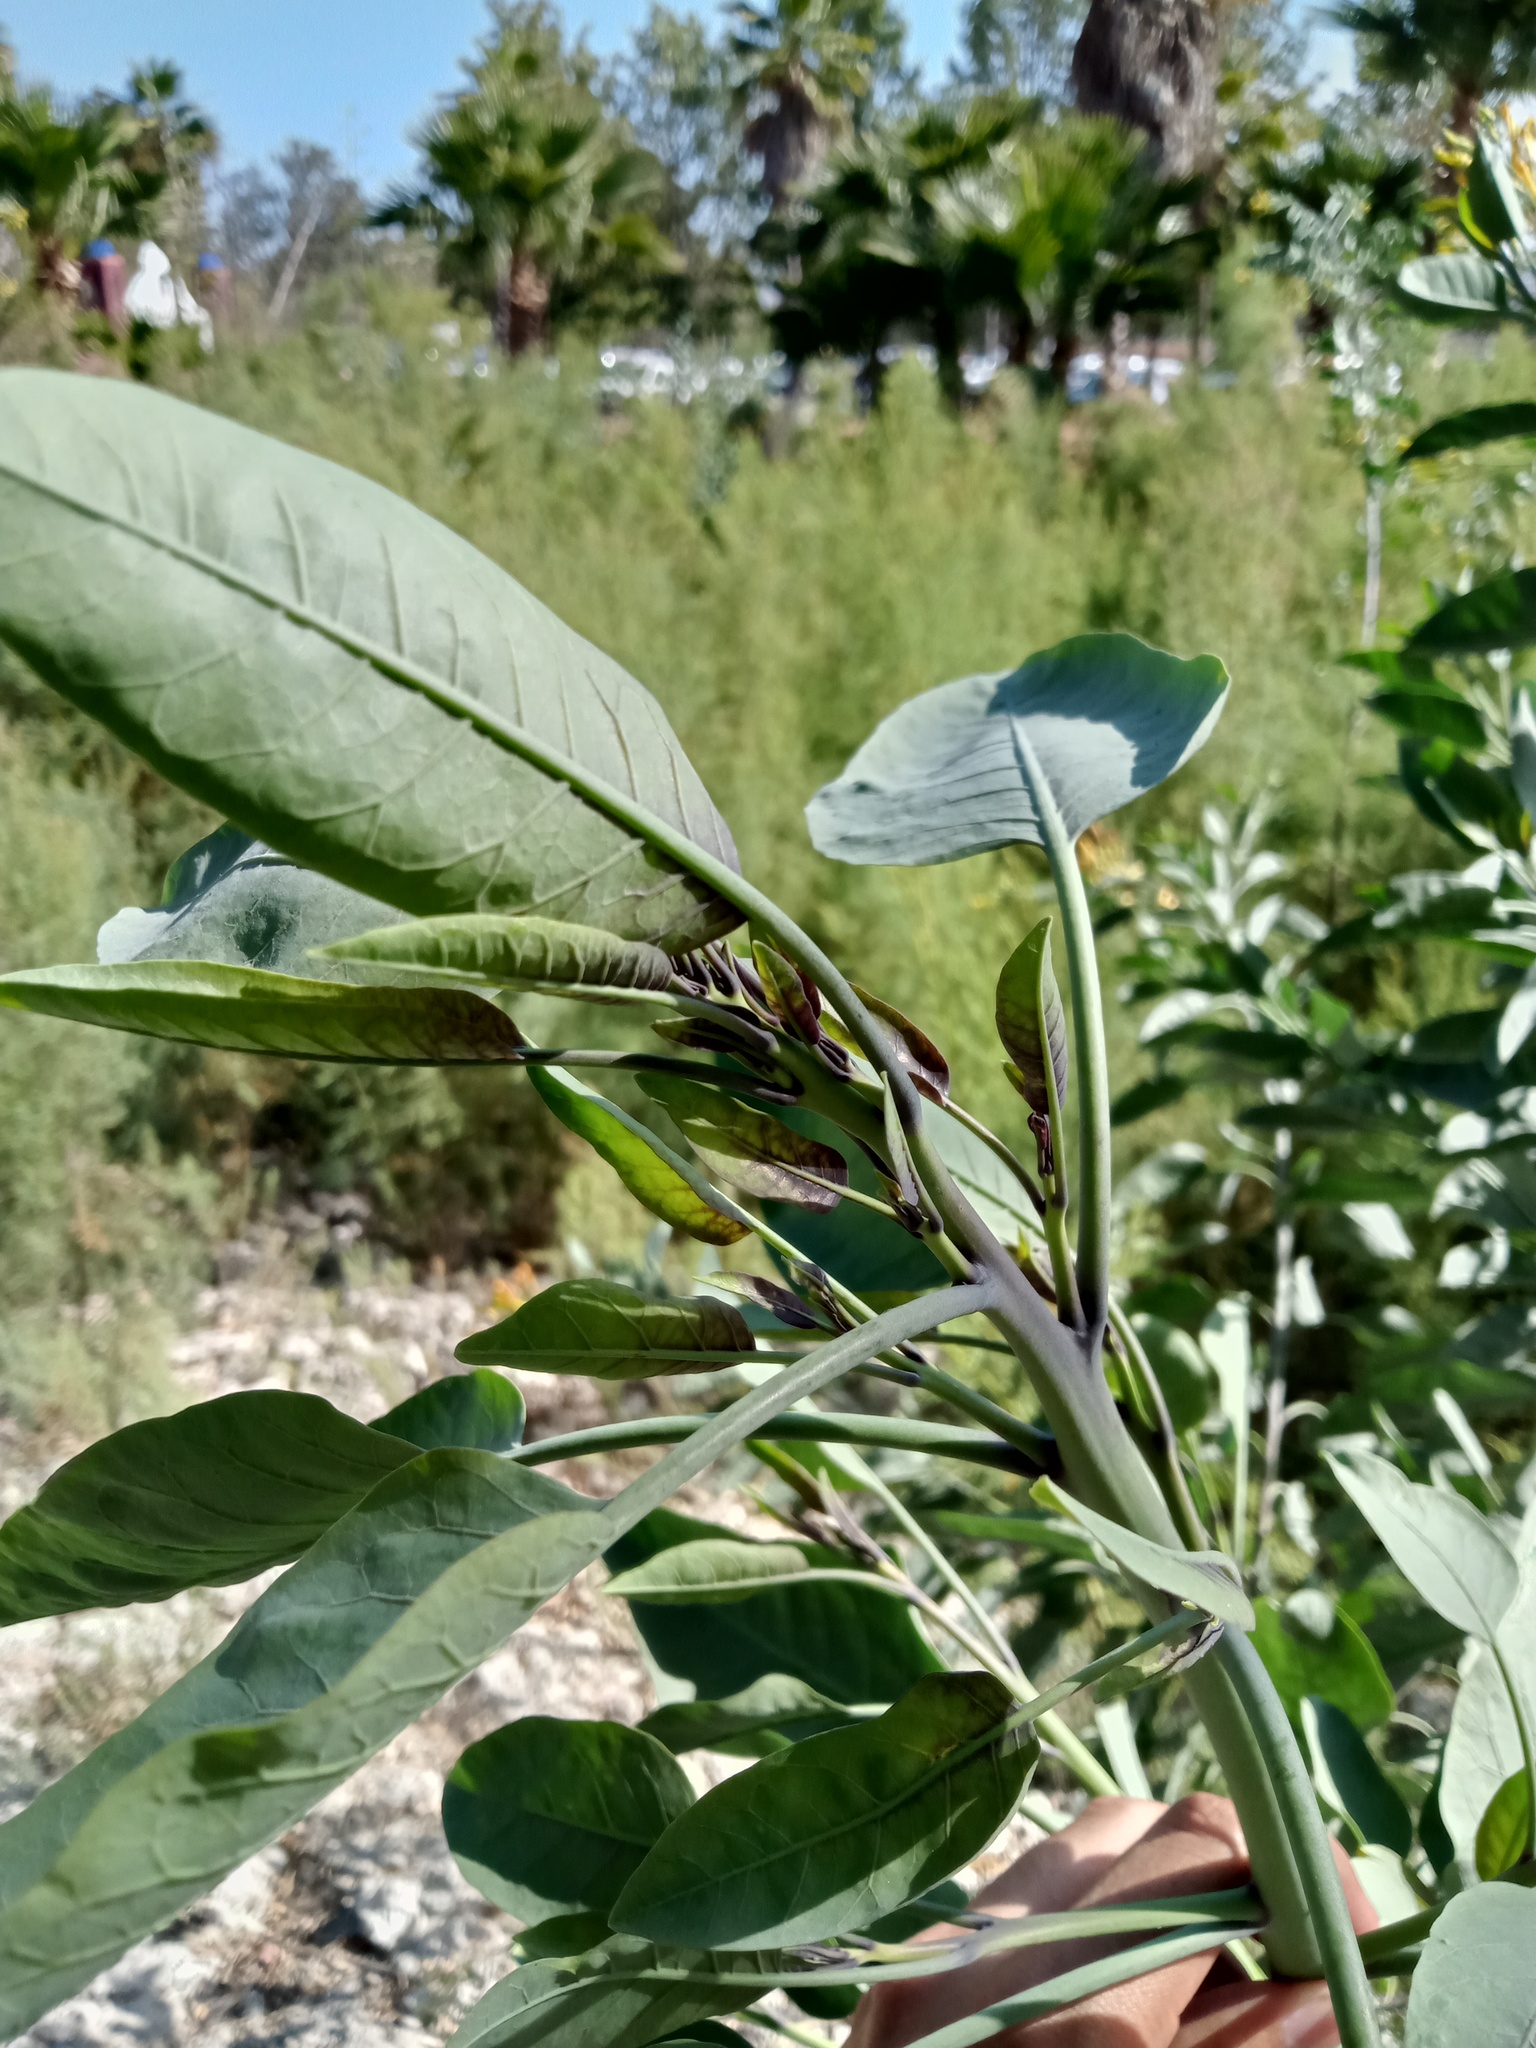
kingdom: Plantae
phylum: Tracheophyta
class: Magnoliopsida
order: Solanales
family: Solanaceae
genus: Nicotiana
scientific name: Nicotiana glauca
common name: Tree tobacco
